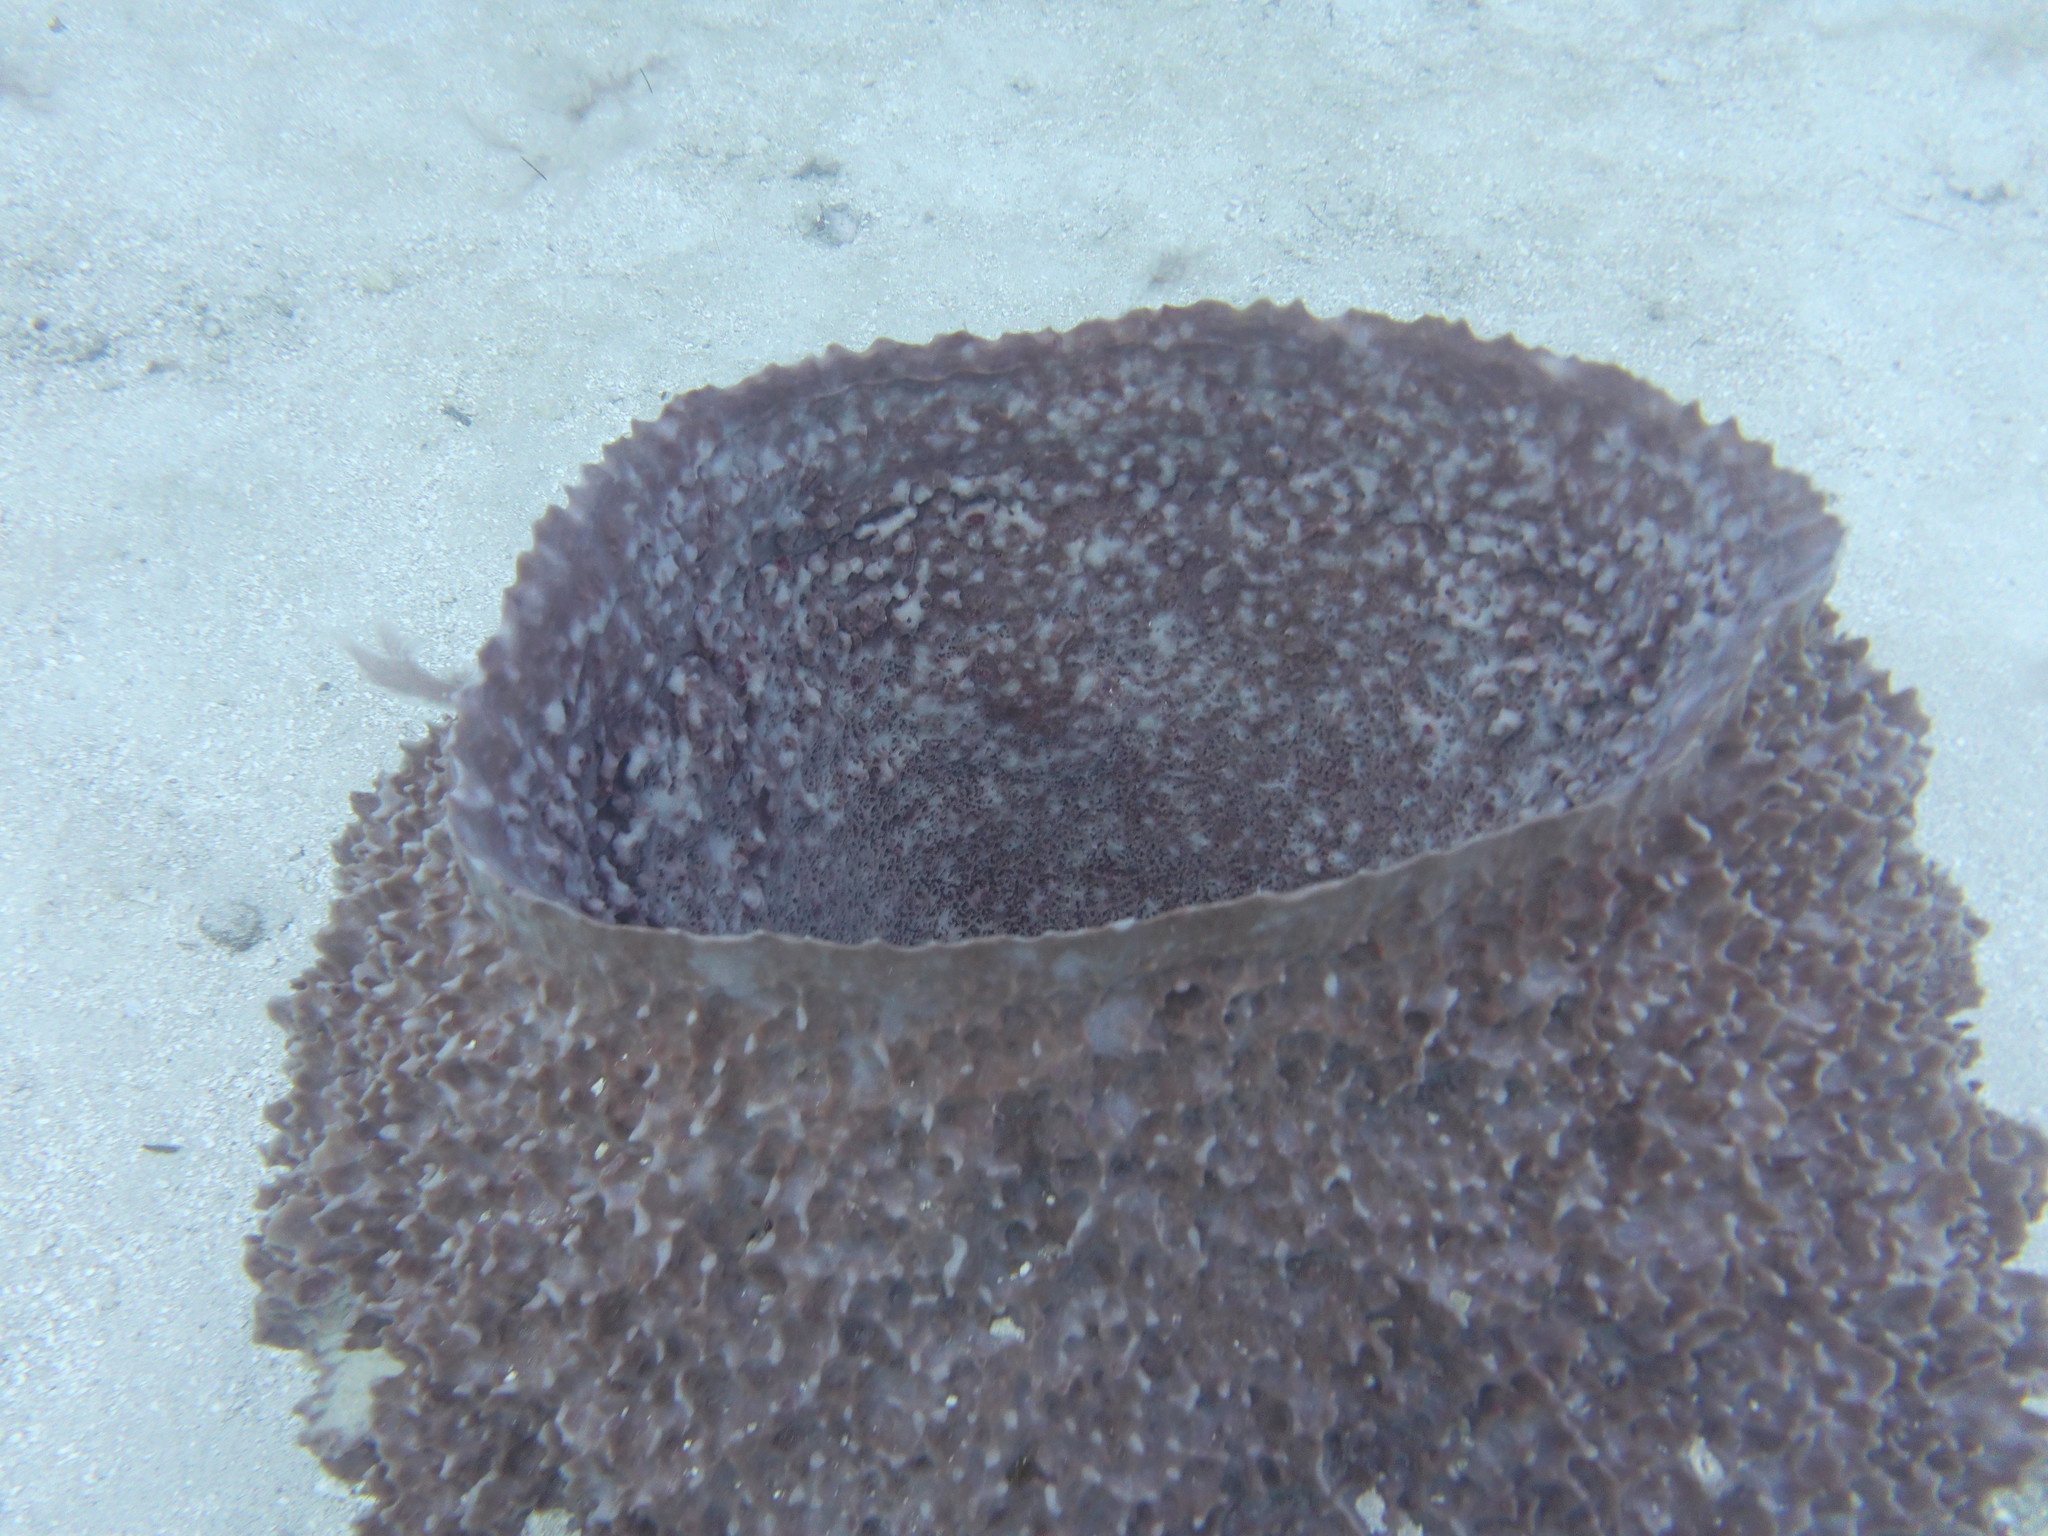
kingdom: Animalia
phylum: Porifera
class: Demospongiae
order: Haplosclerida
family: Petrosiidae
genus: Xestospongia
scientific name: Xestospongia muta
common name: Giant barrel sponge
